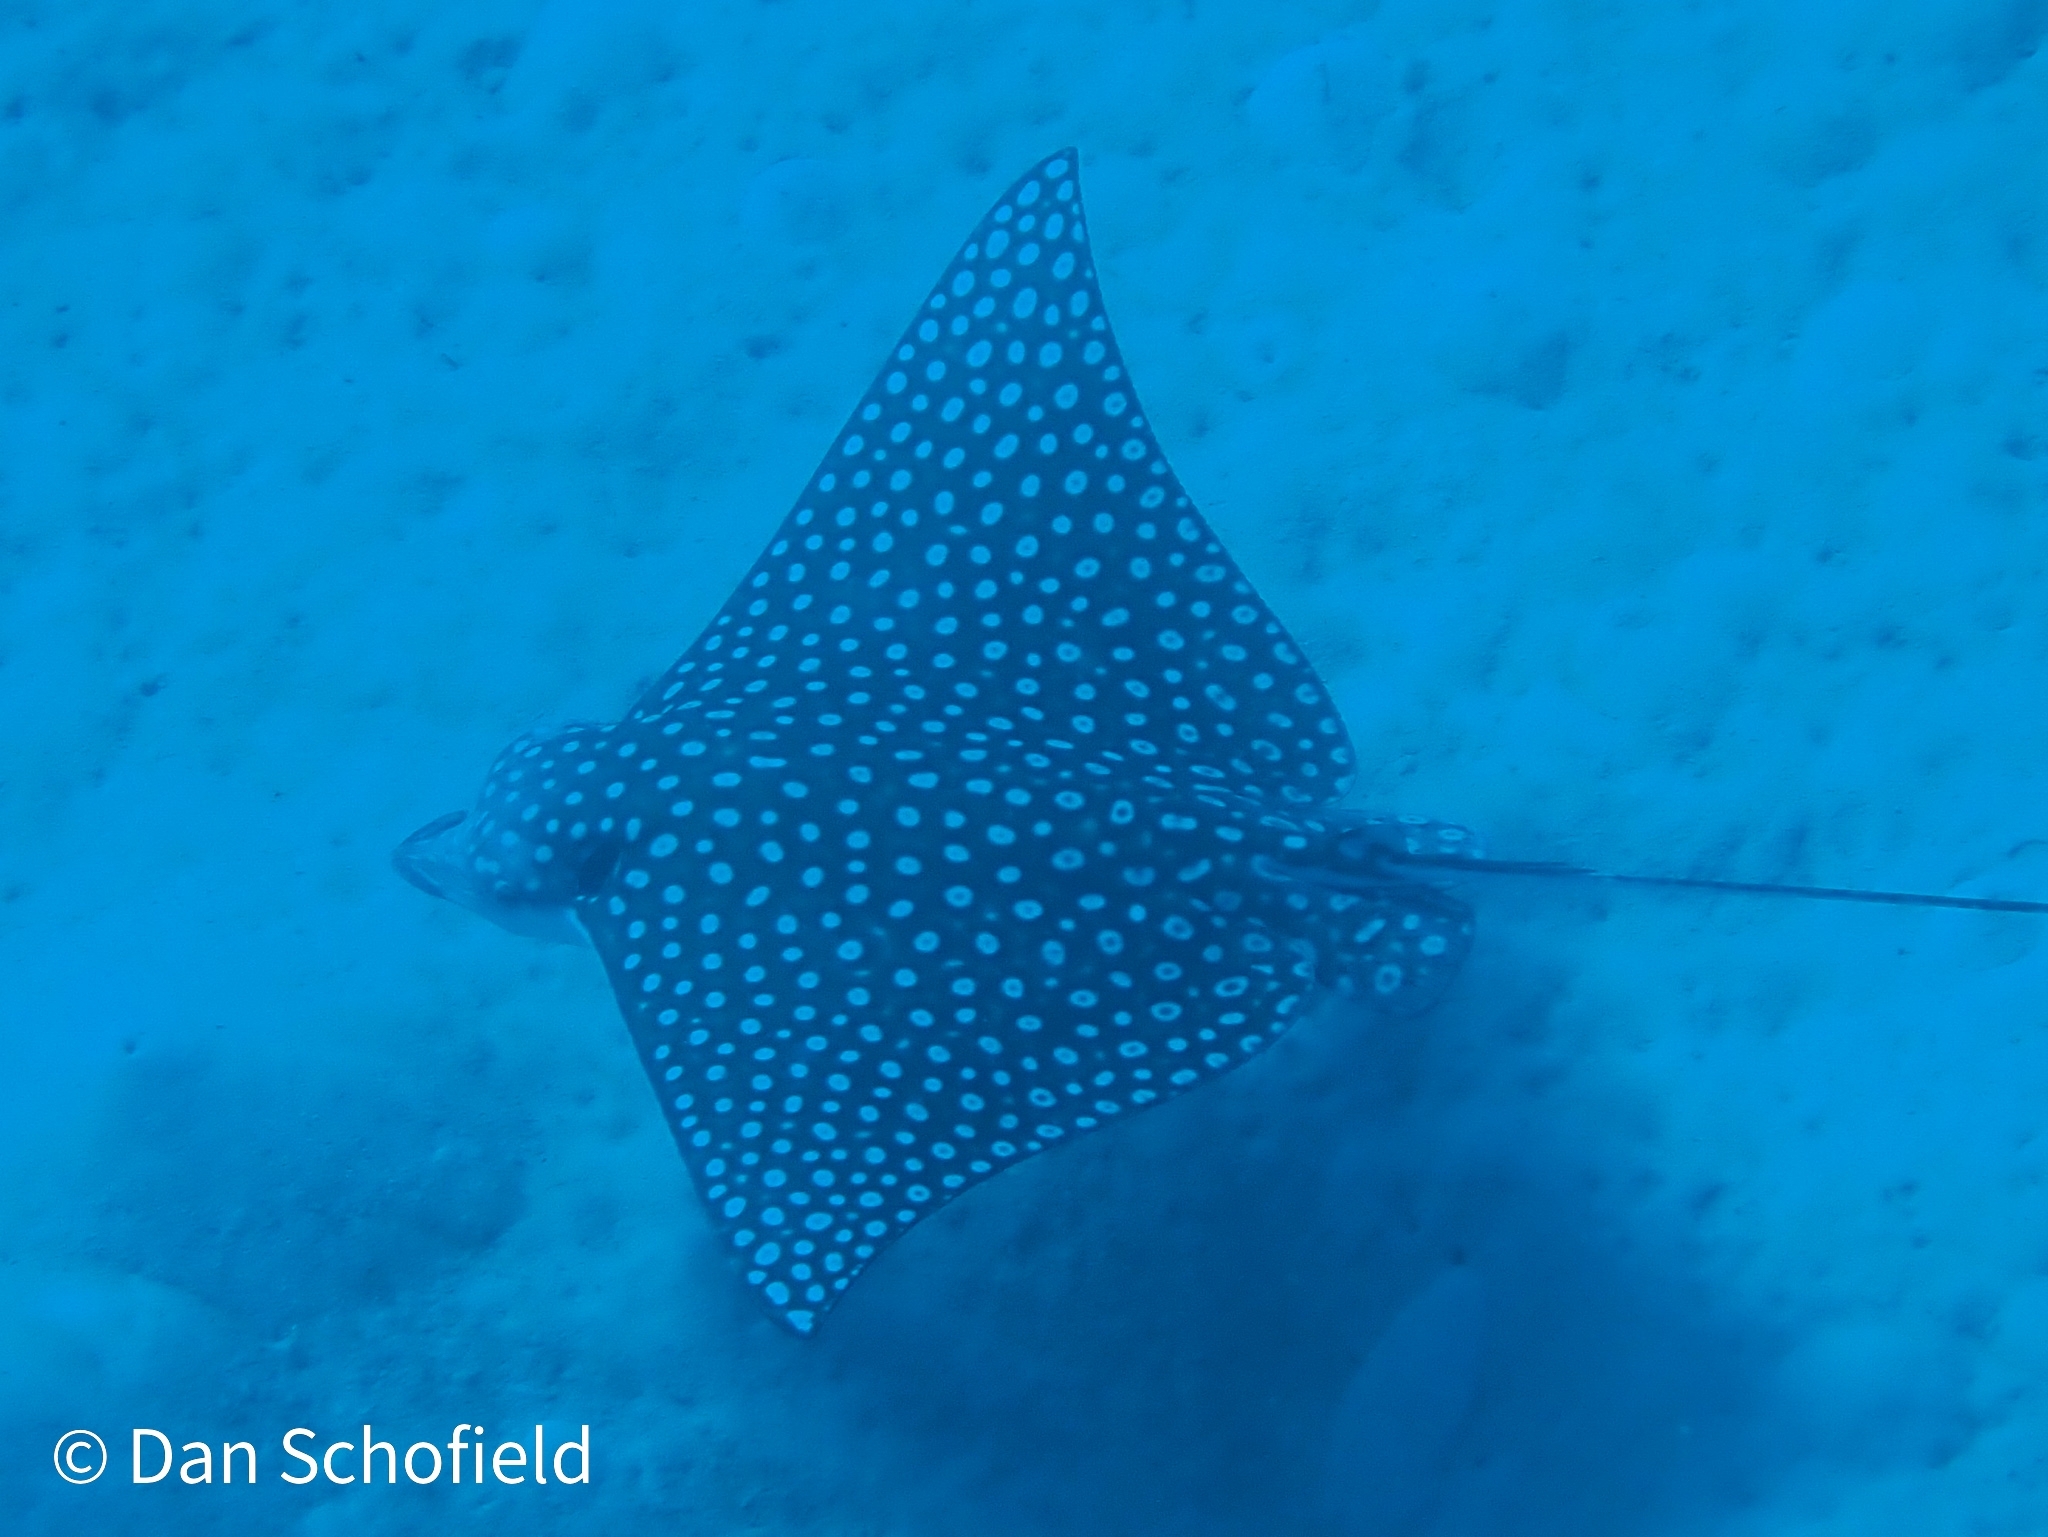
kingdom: Animalia
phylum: Chordata
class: Elasmobranchii
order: Myliobatiformes
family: Myliobatidae
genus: Aetobatus
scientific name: Aetobatus narinari
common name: Spotted eagle ray
